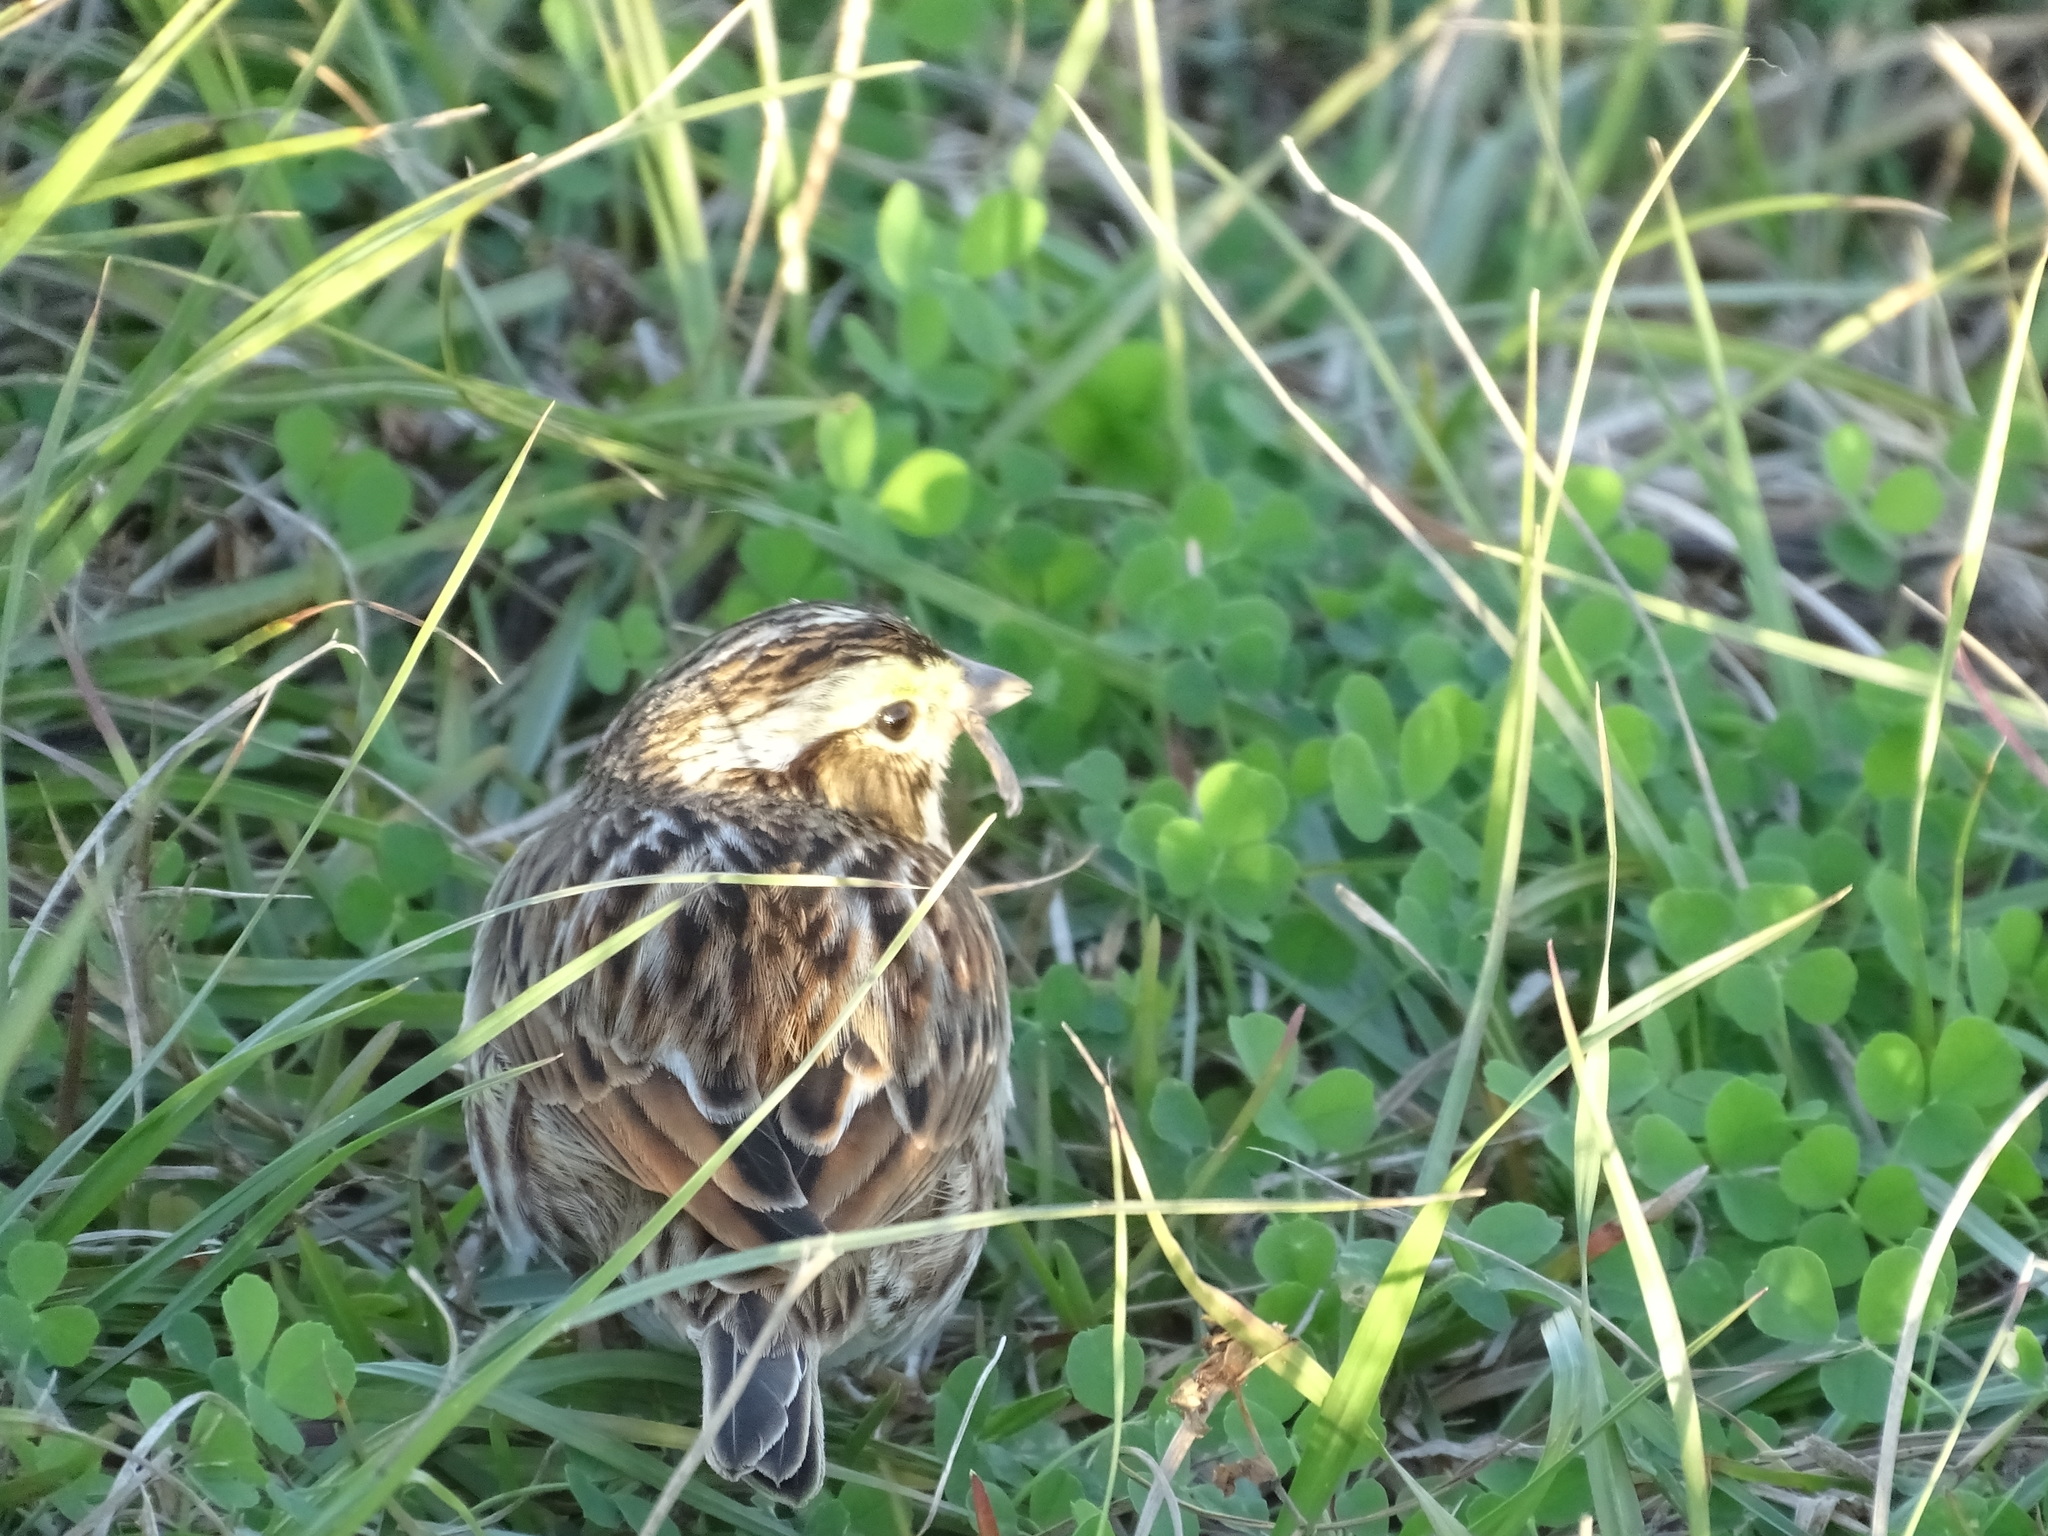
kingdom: Animalia
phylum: Chordata
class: Aves
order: Passeriformes
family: Passerellidae
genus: Passerculus
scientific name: Passerculus sandwichensis
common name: Savannah sparrow
